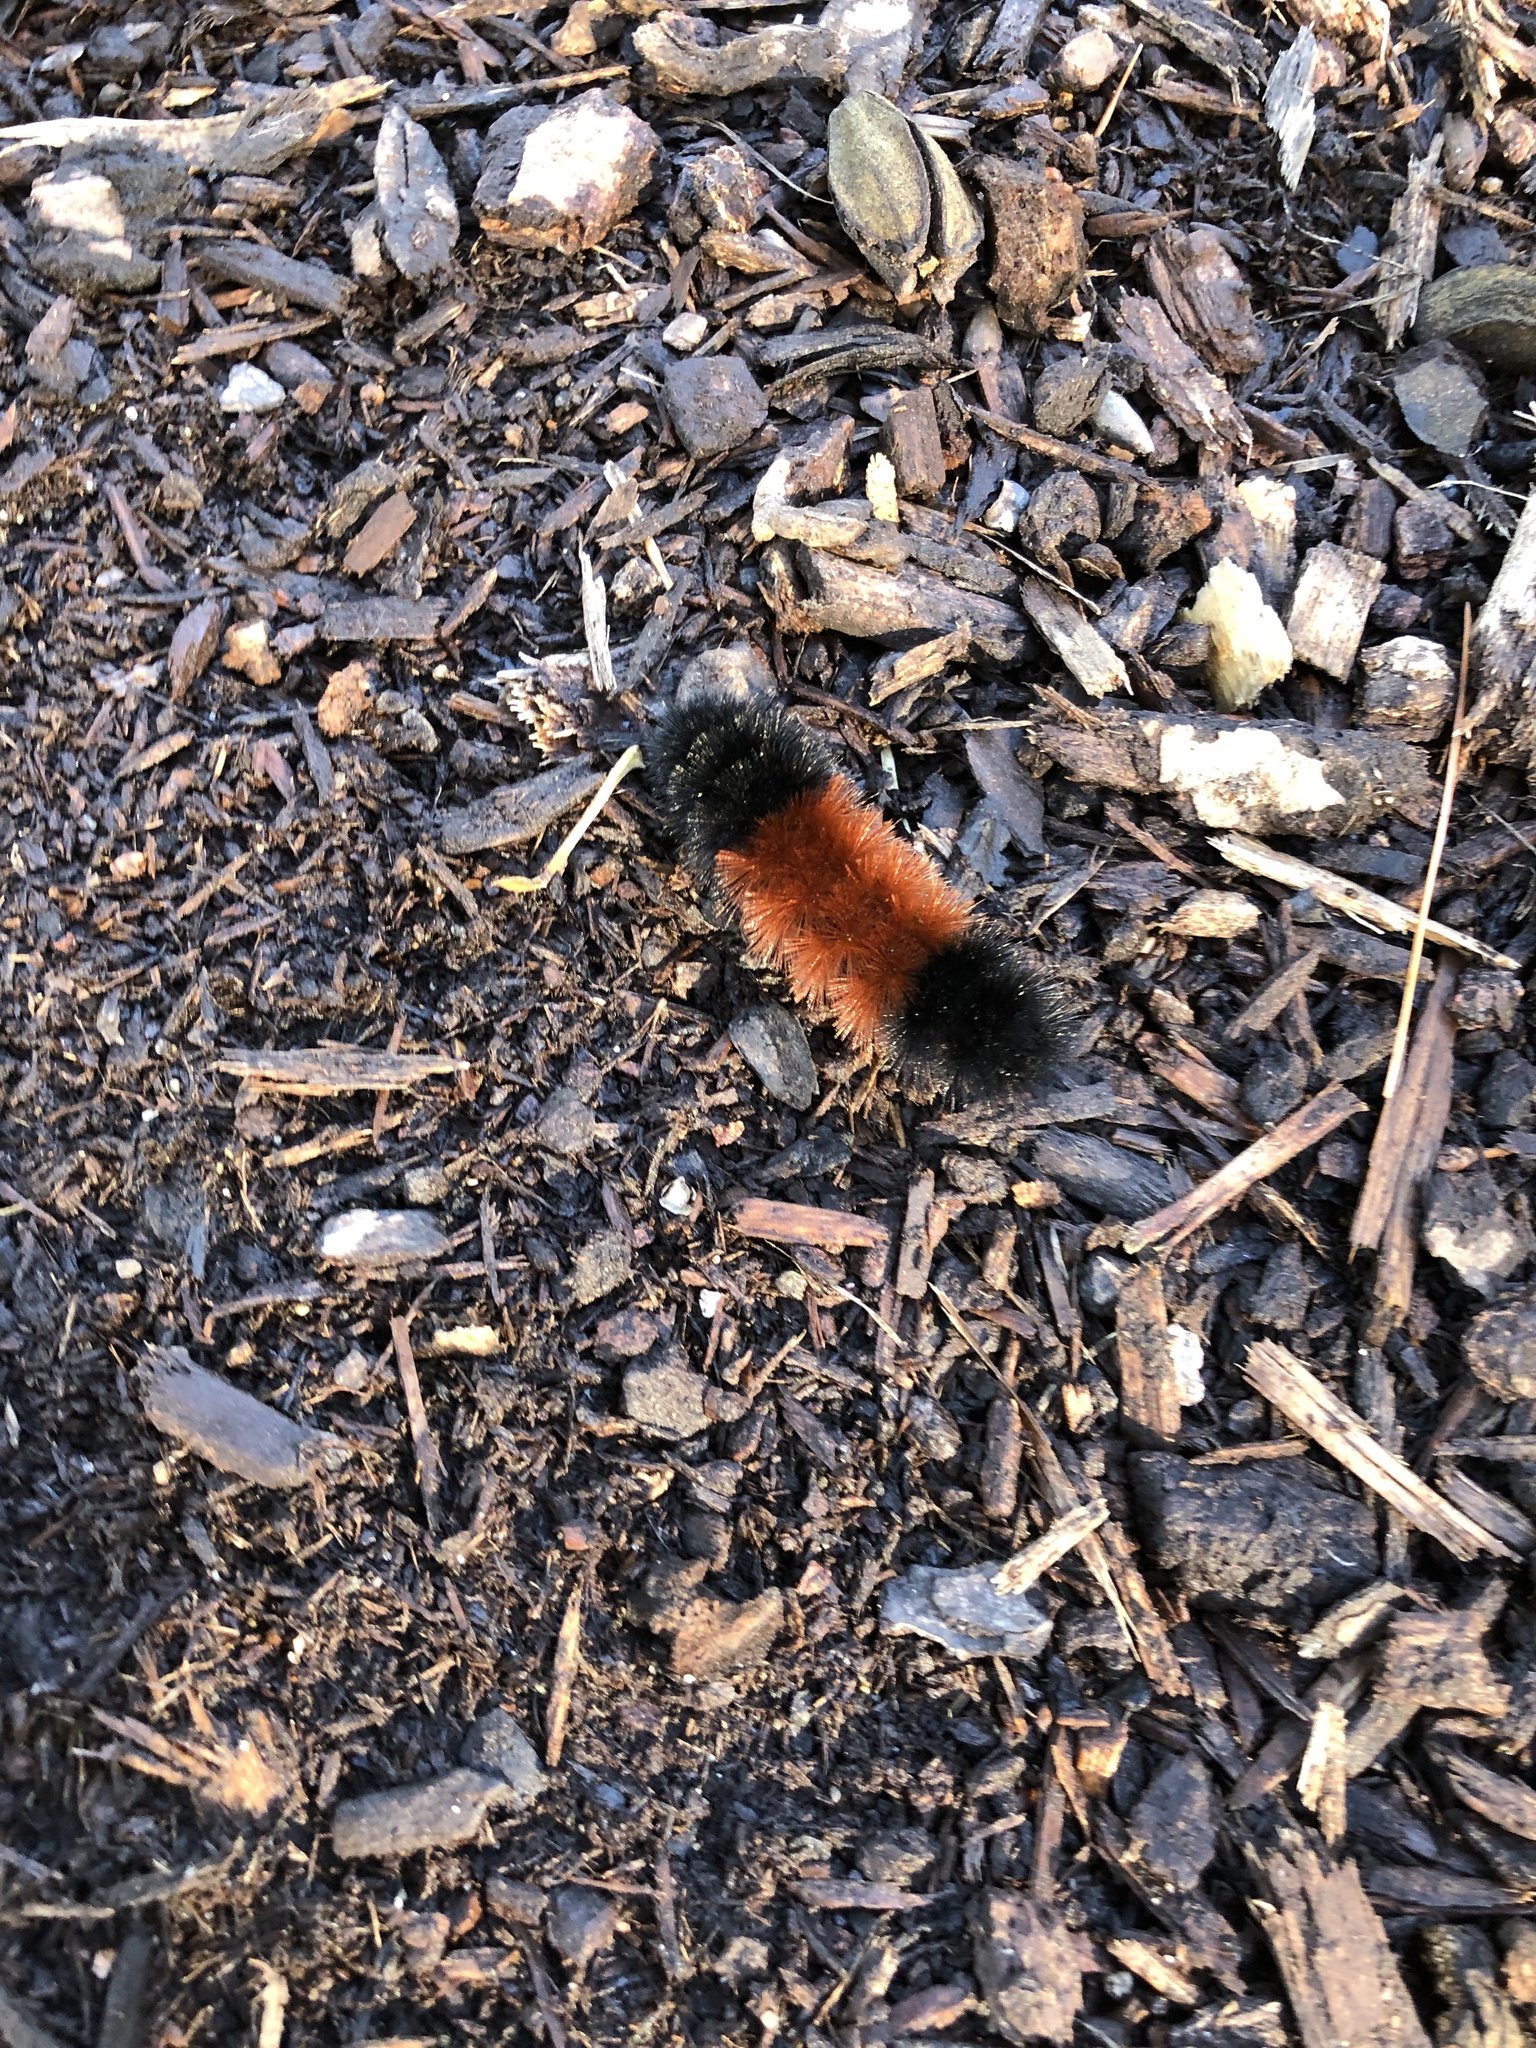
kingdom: Animalia
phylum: Arthropoda
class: Insecta
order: Lepidoptera
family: Erebidae
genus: Pyrrharctia
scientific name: Pyrrharctia isabella
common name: Isabella tiger moth
